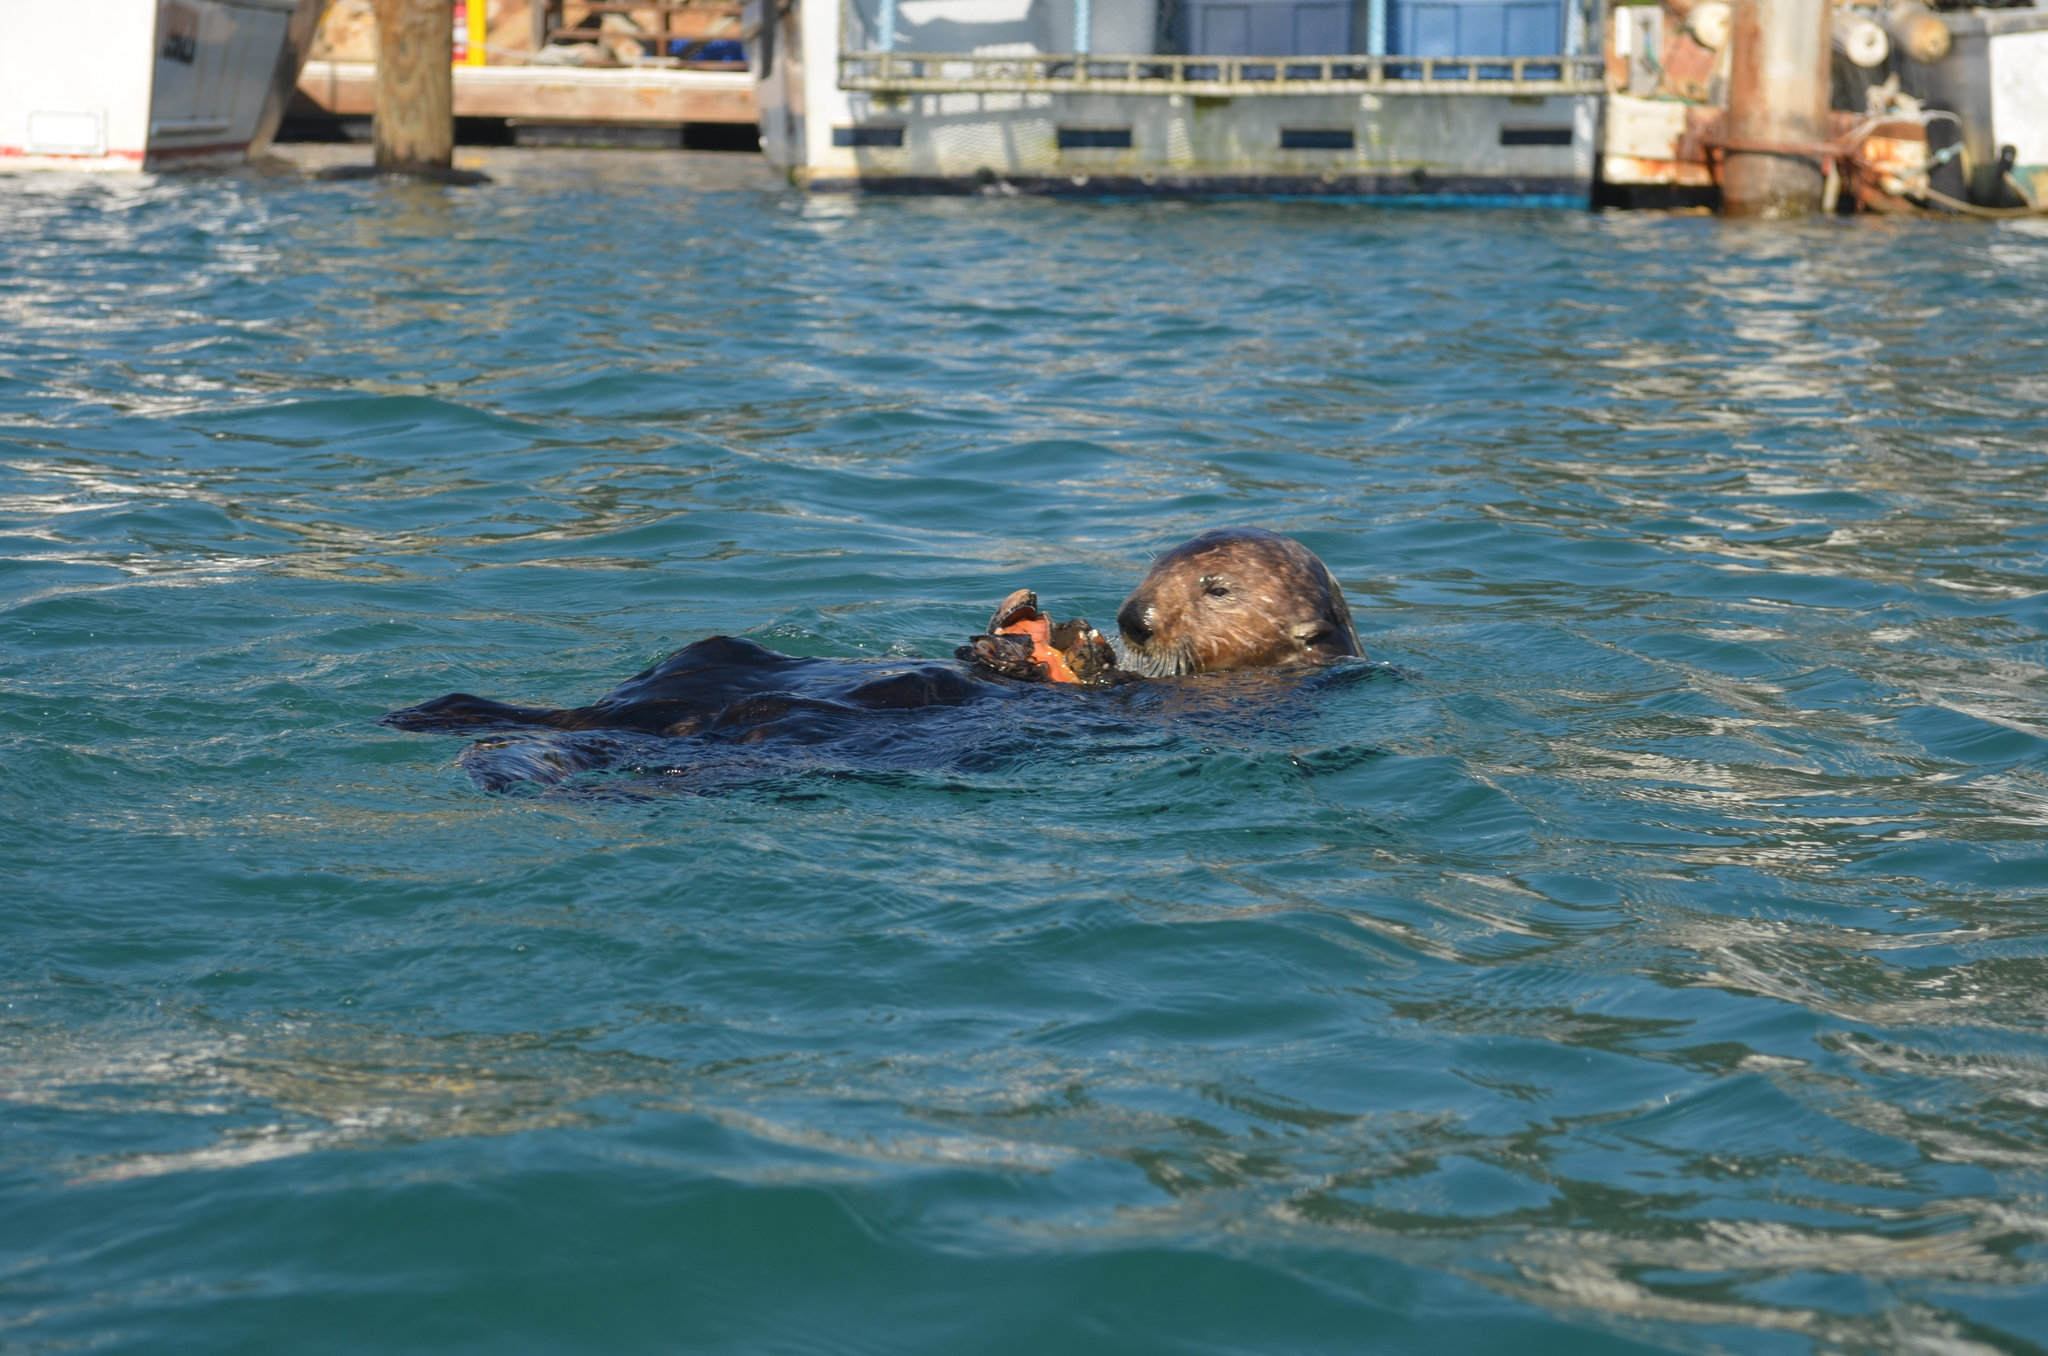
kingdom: Animalia
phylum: Chordata
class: Mammalia
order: Carnivora
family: Mustelidae
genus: Enhydra
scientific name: Enhydra lutris
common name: Sea otter
